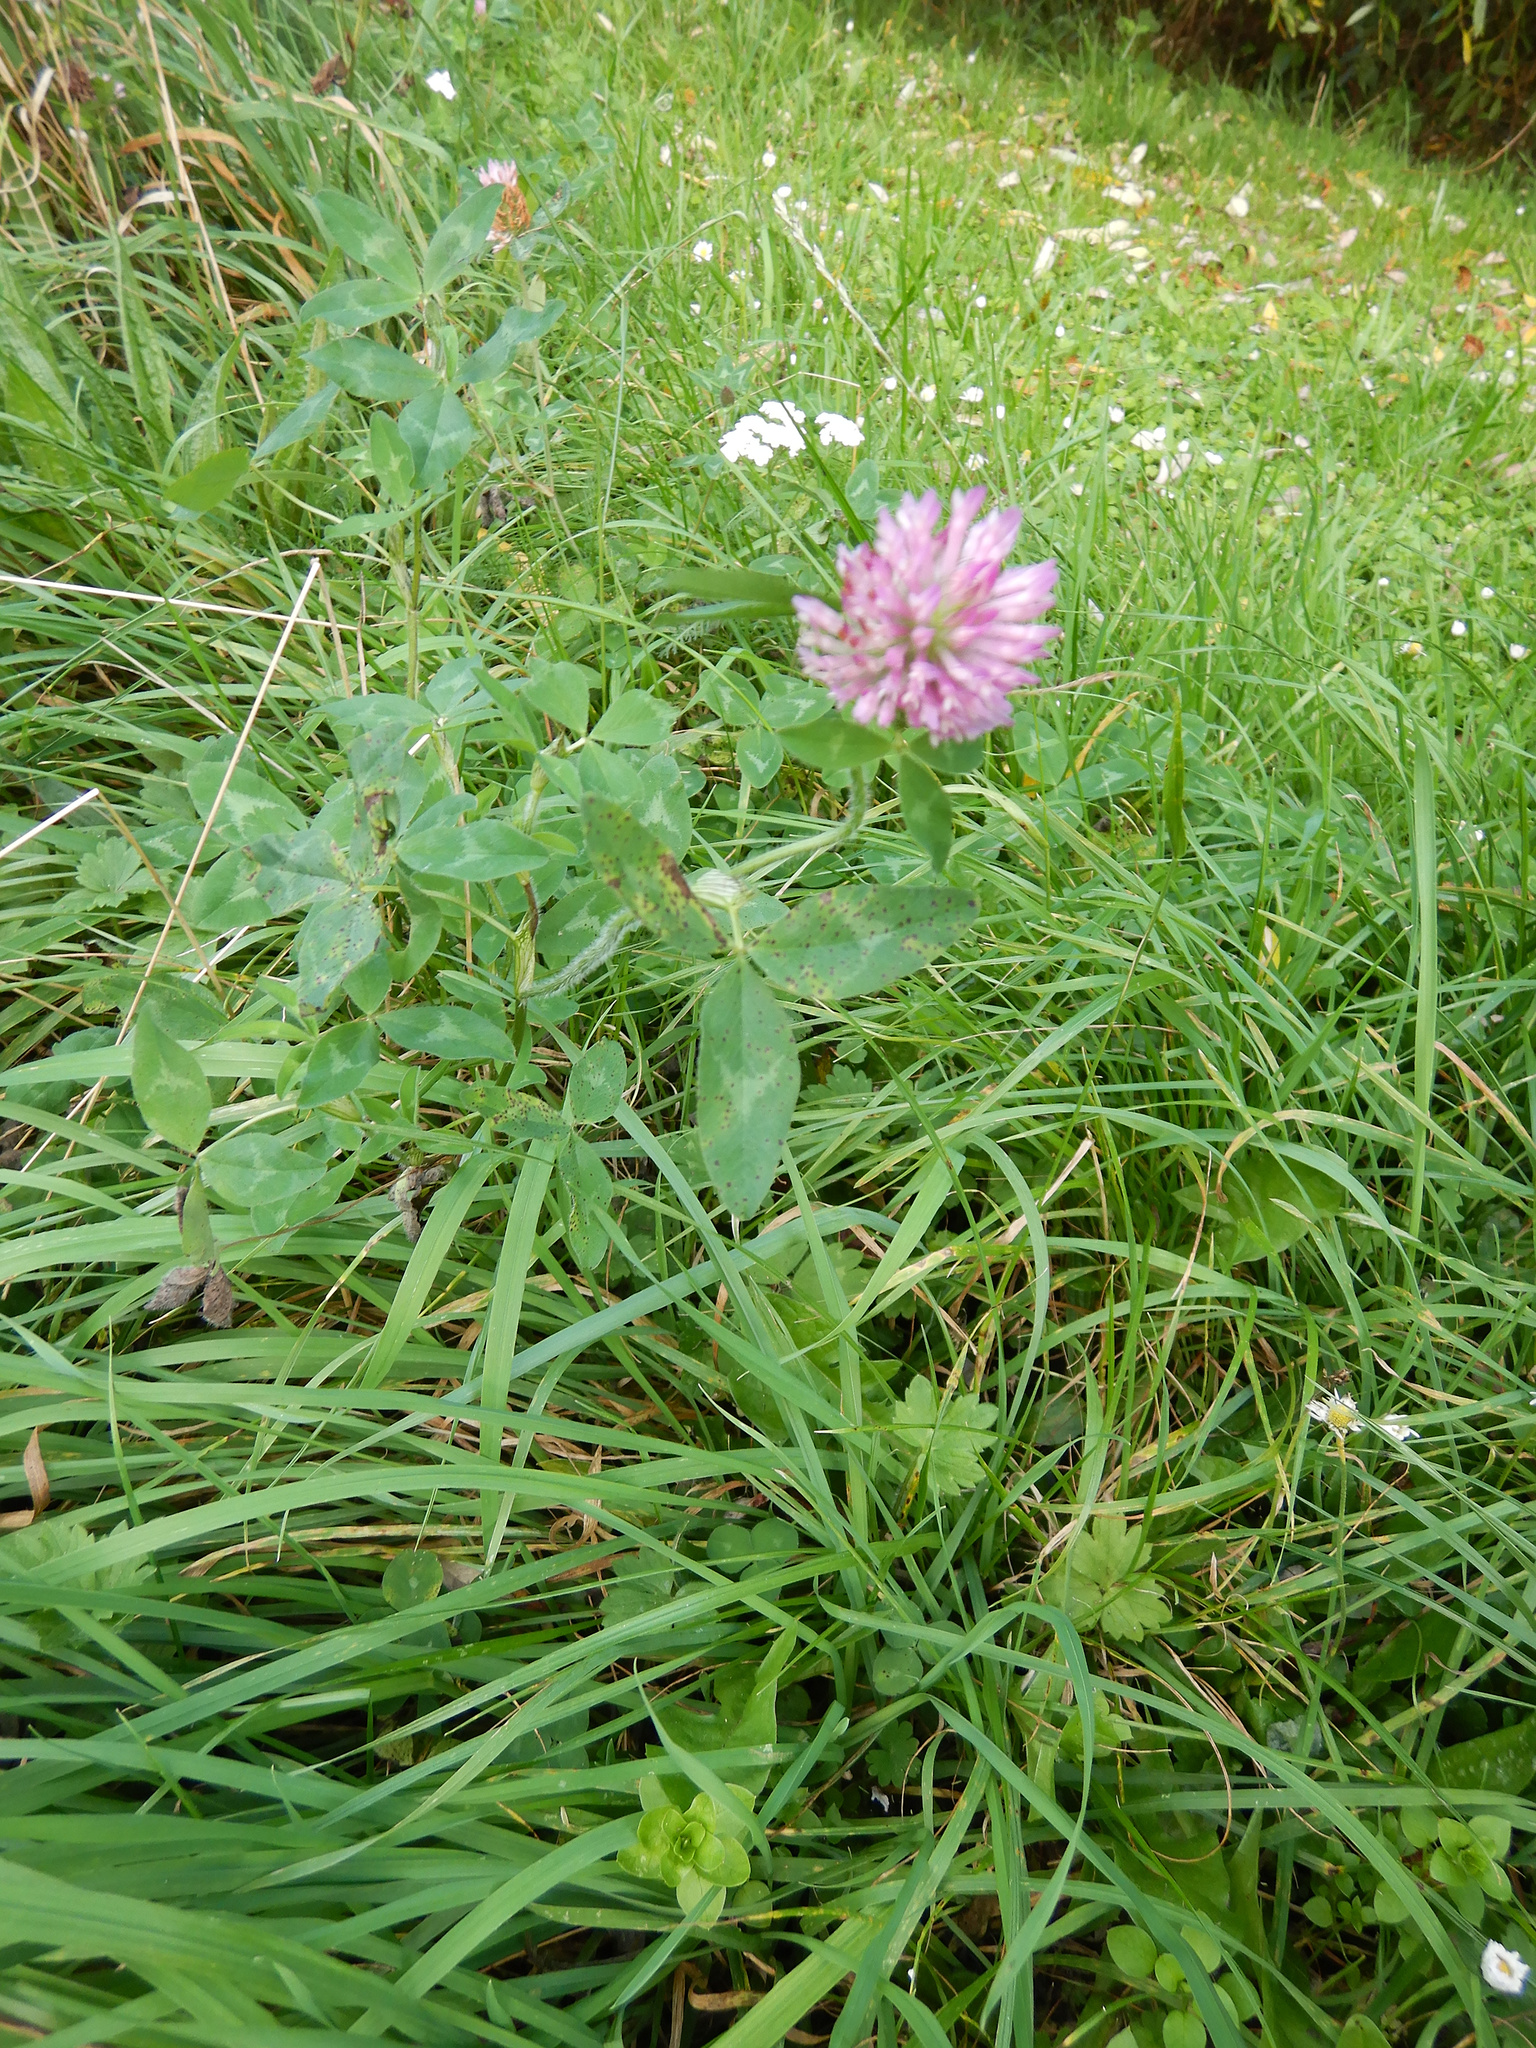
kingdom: Plantae
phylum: Tracheophyta
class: Magnoliopsida
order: Fabales
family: Fabaceae
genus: Trifolium
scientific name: Trifolium pratense
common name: Red clover
